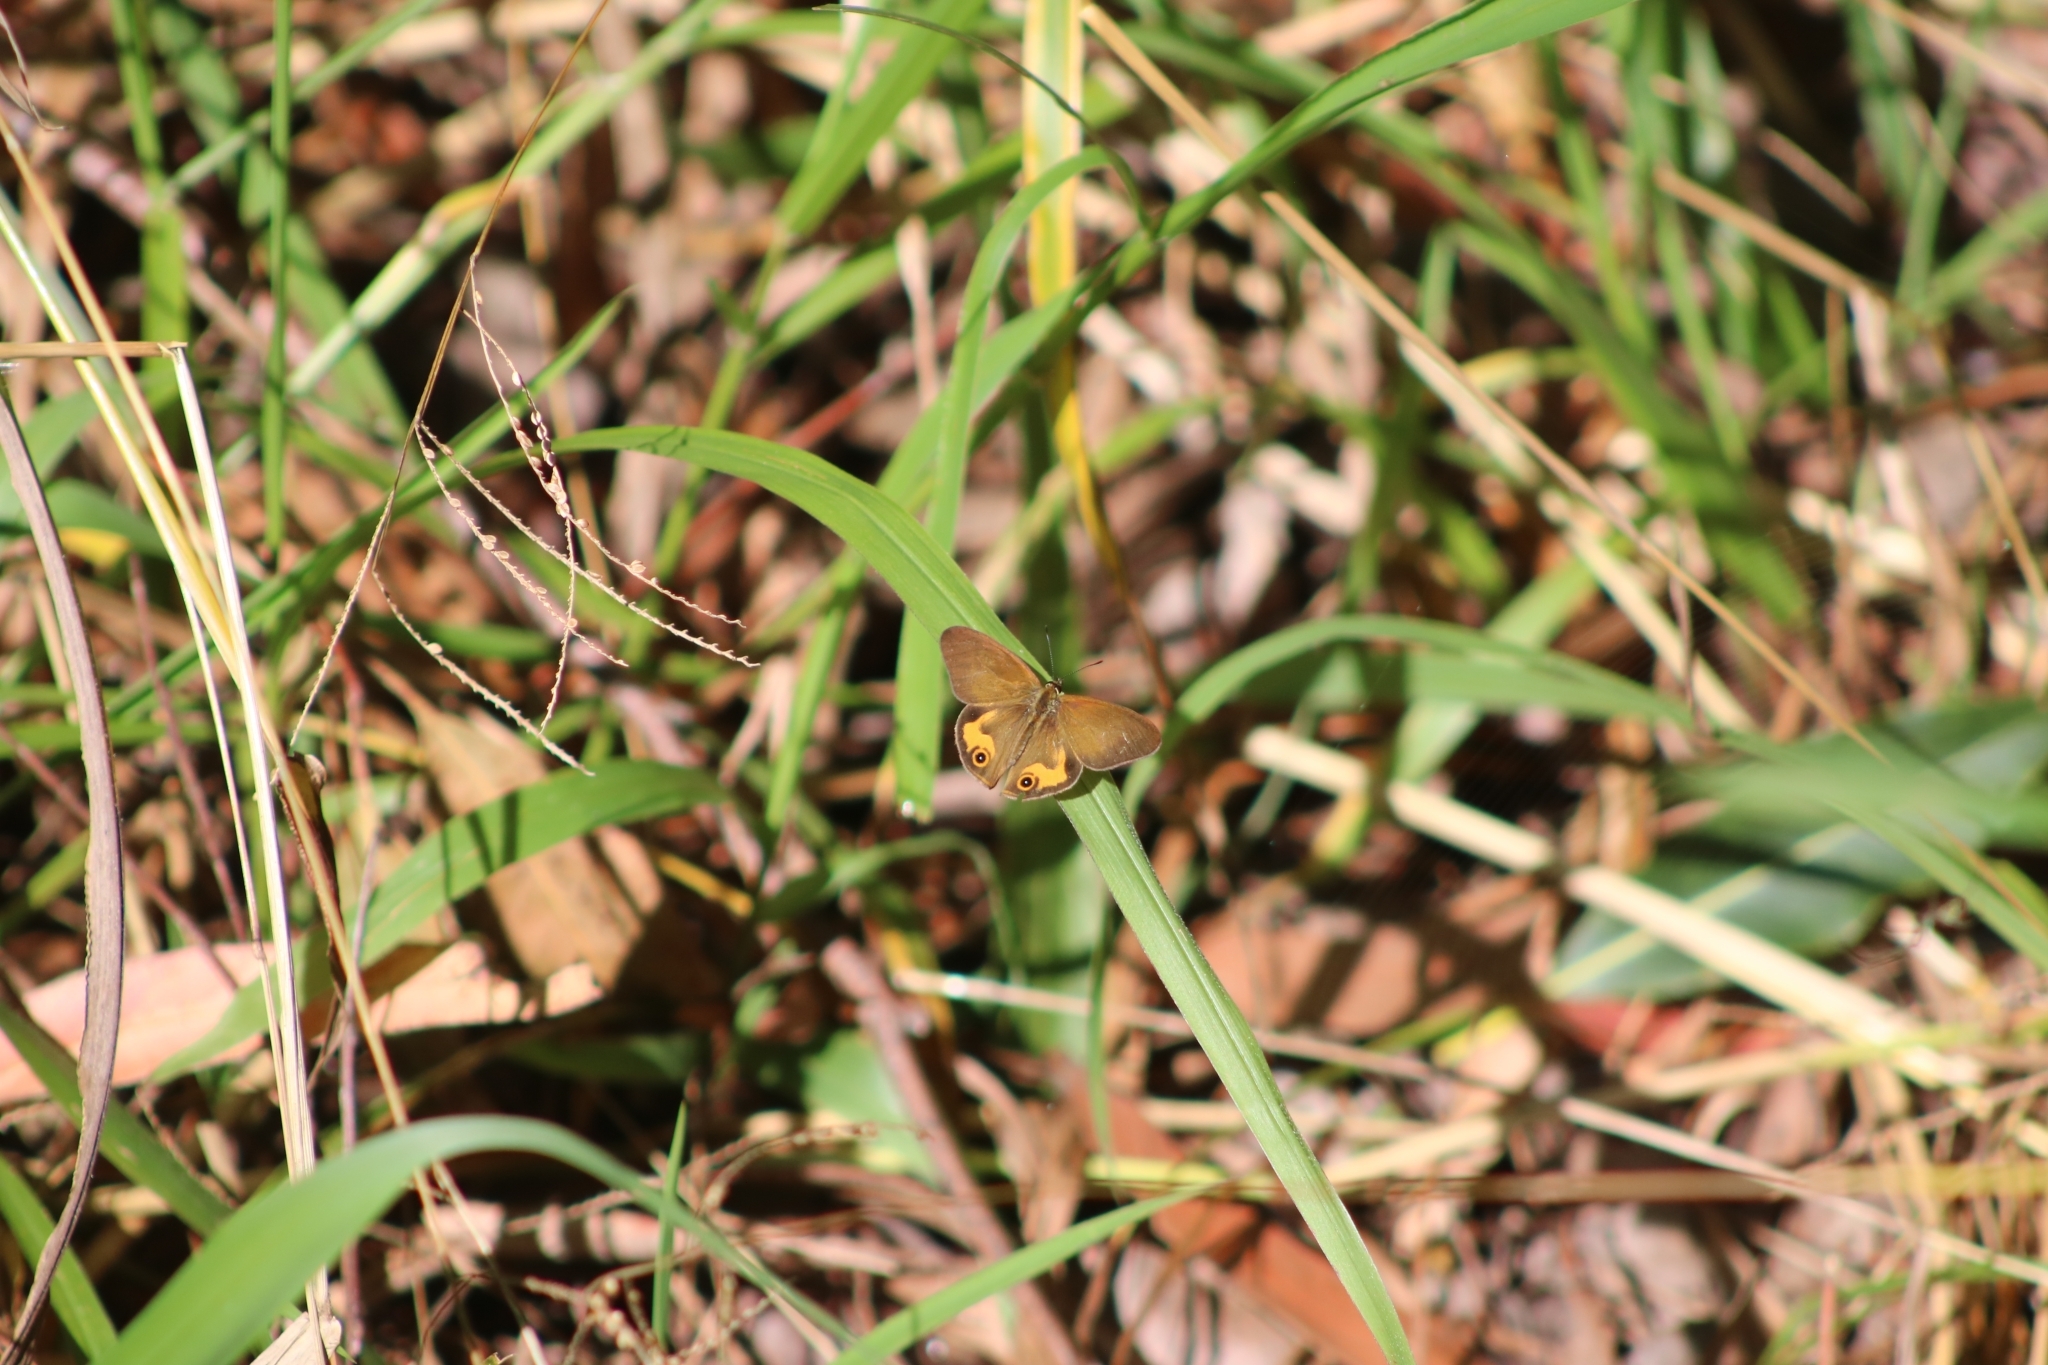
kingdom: Animalia
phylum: Arthropoda
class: Insecta
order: Lepidoptera
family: Nymphalidae
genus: Hypocysta
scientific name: Hypocysta metirius
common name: Brown ringlet
